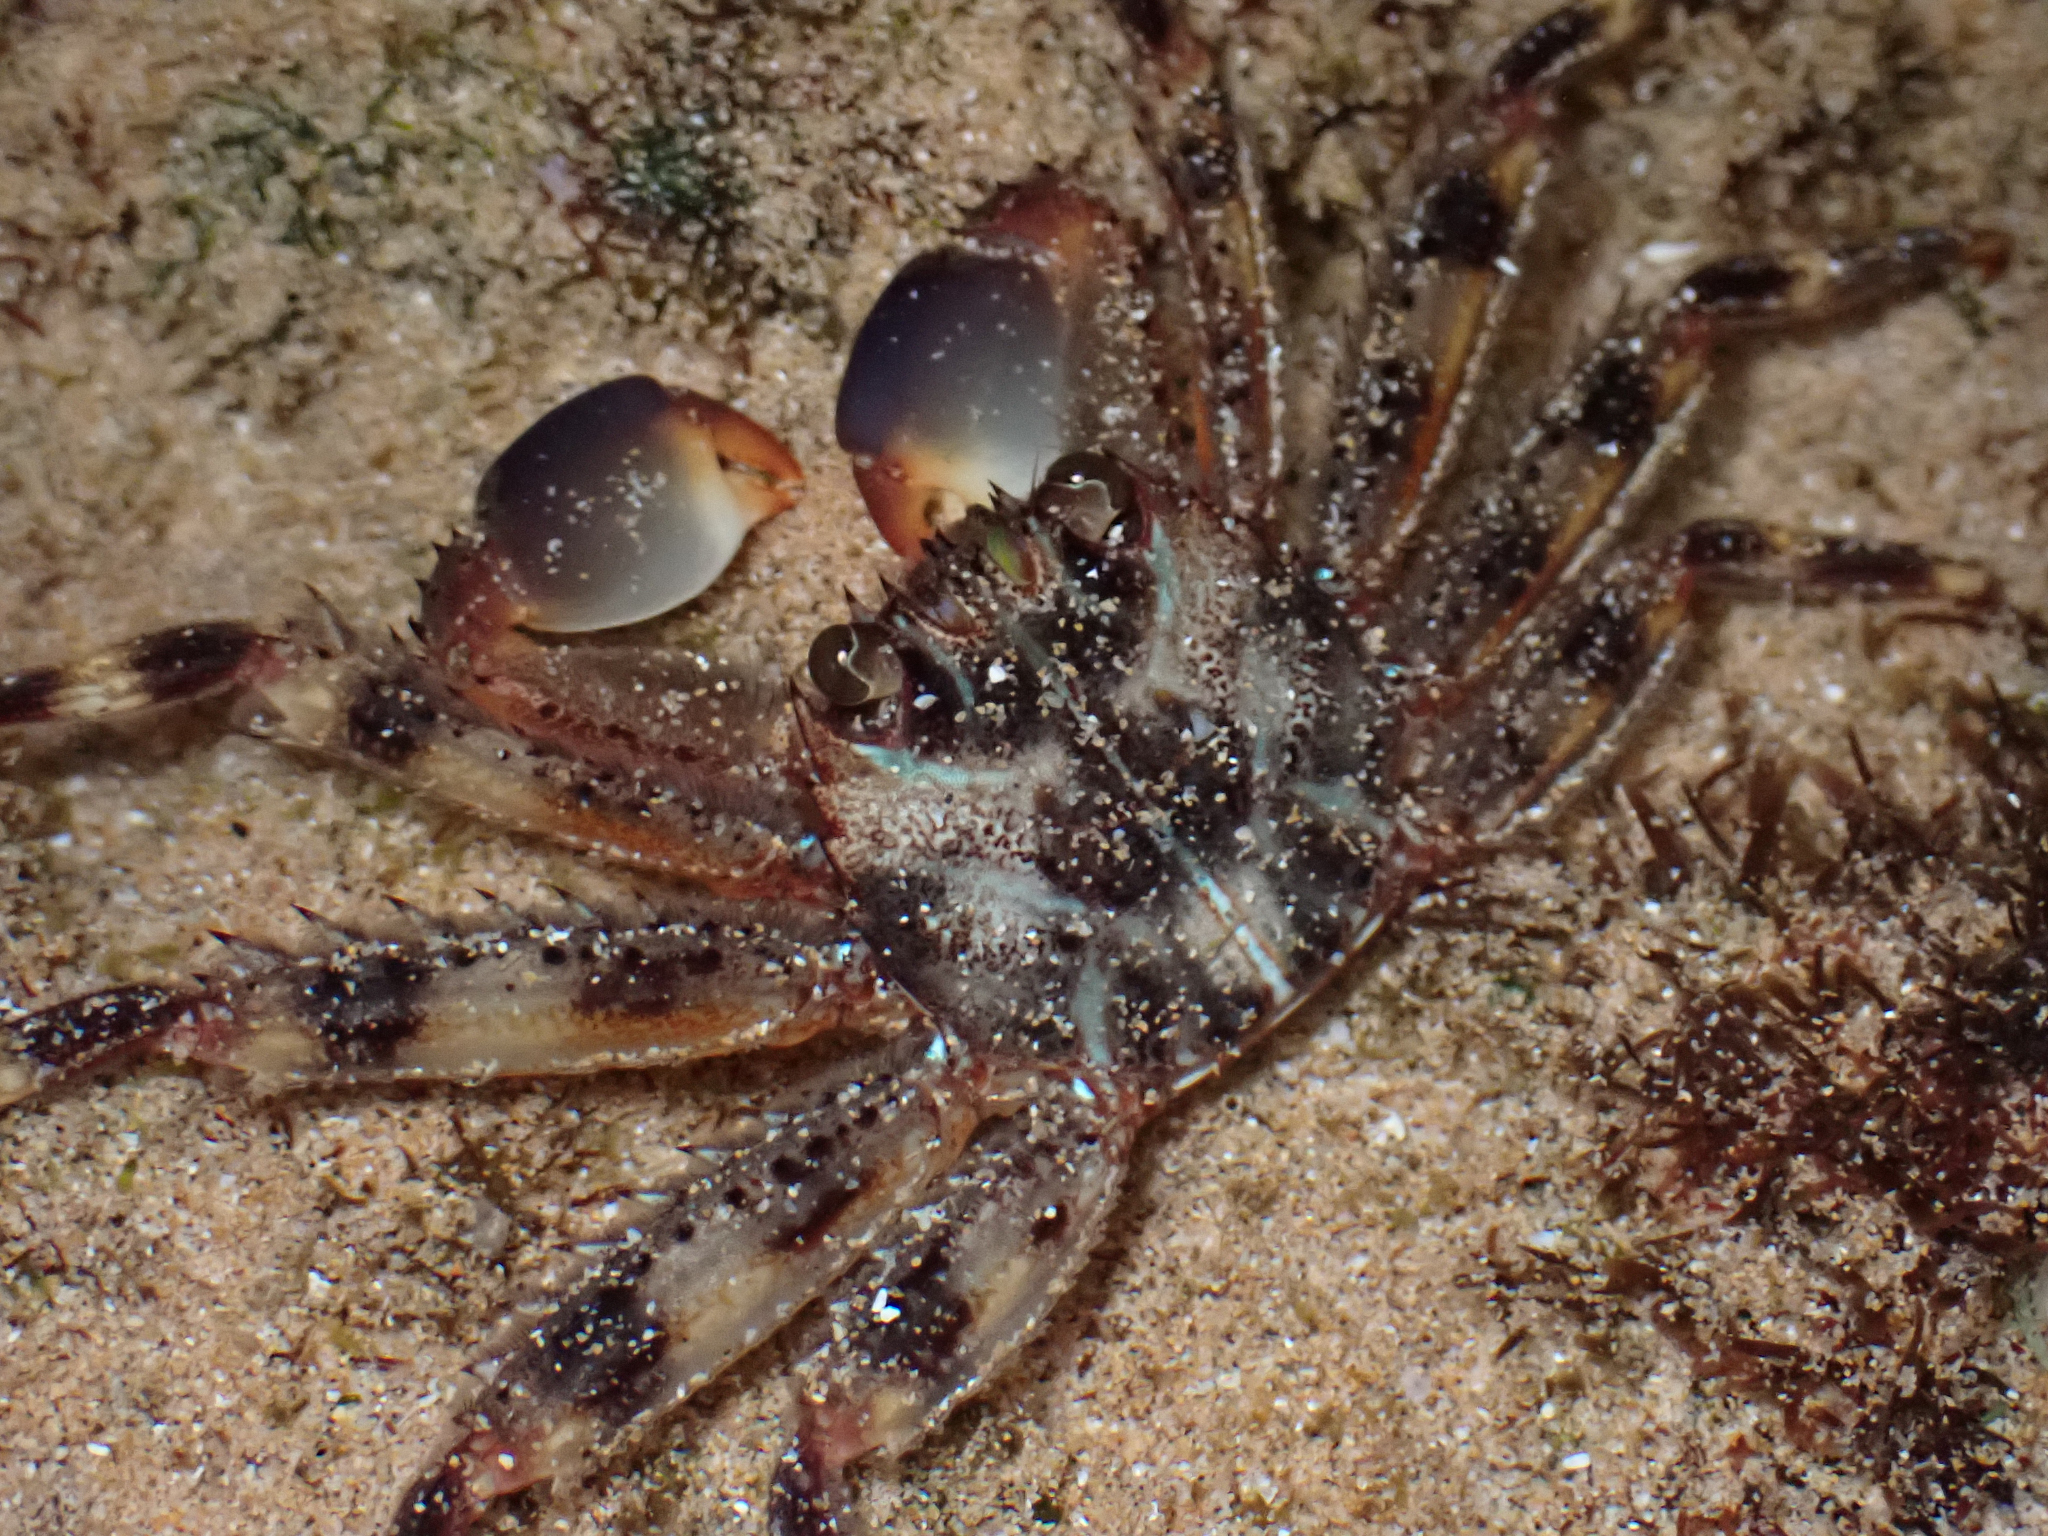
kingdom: Animalia
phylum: Arthropoda
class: Malacostraca
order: Decapoda
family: Percnidae
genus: Percnon
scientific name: Percnon planissimum
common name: Flat rock crab
